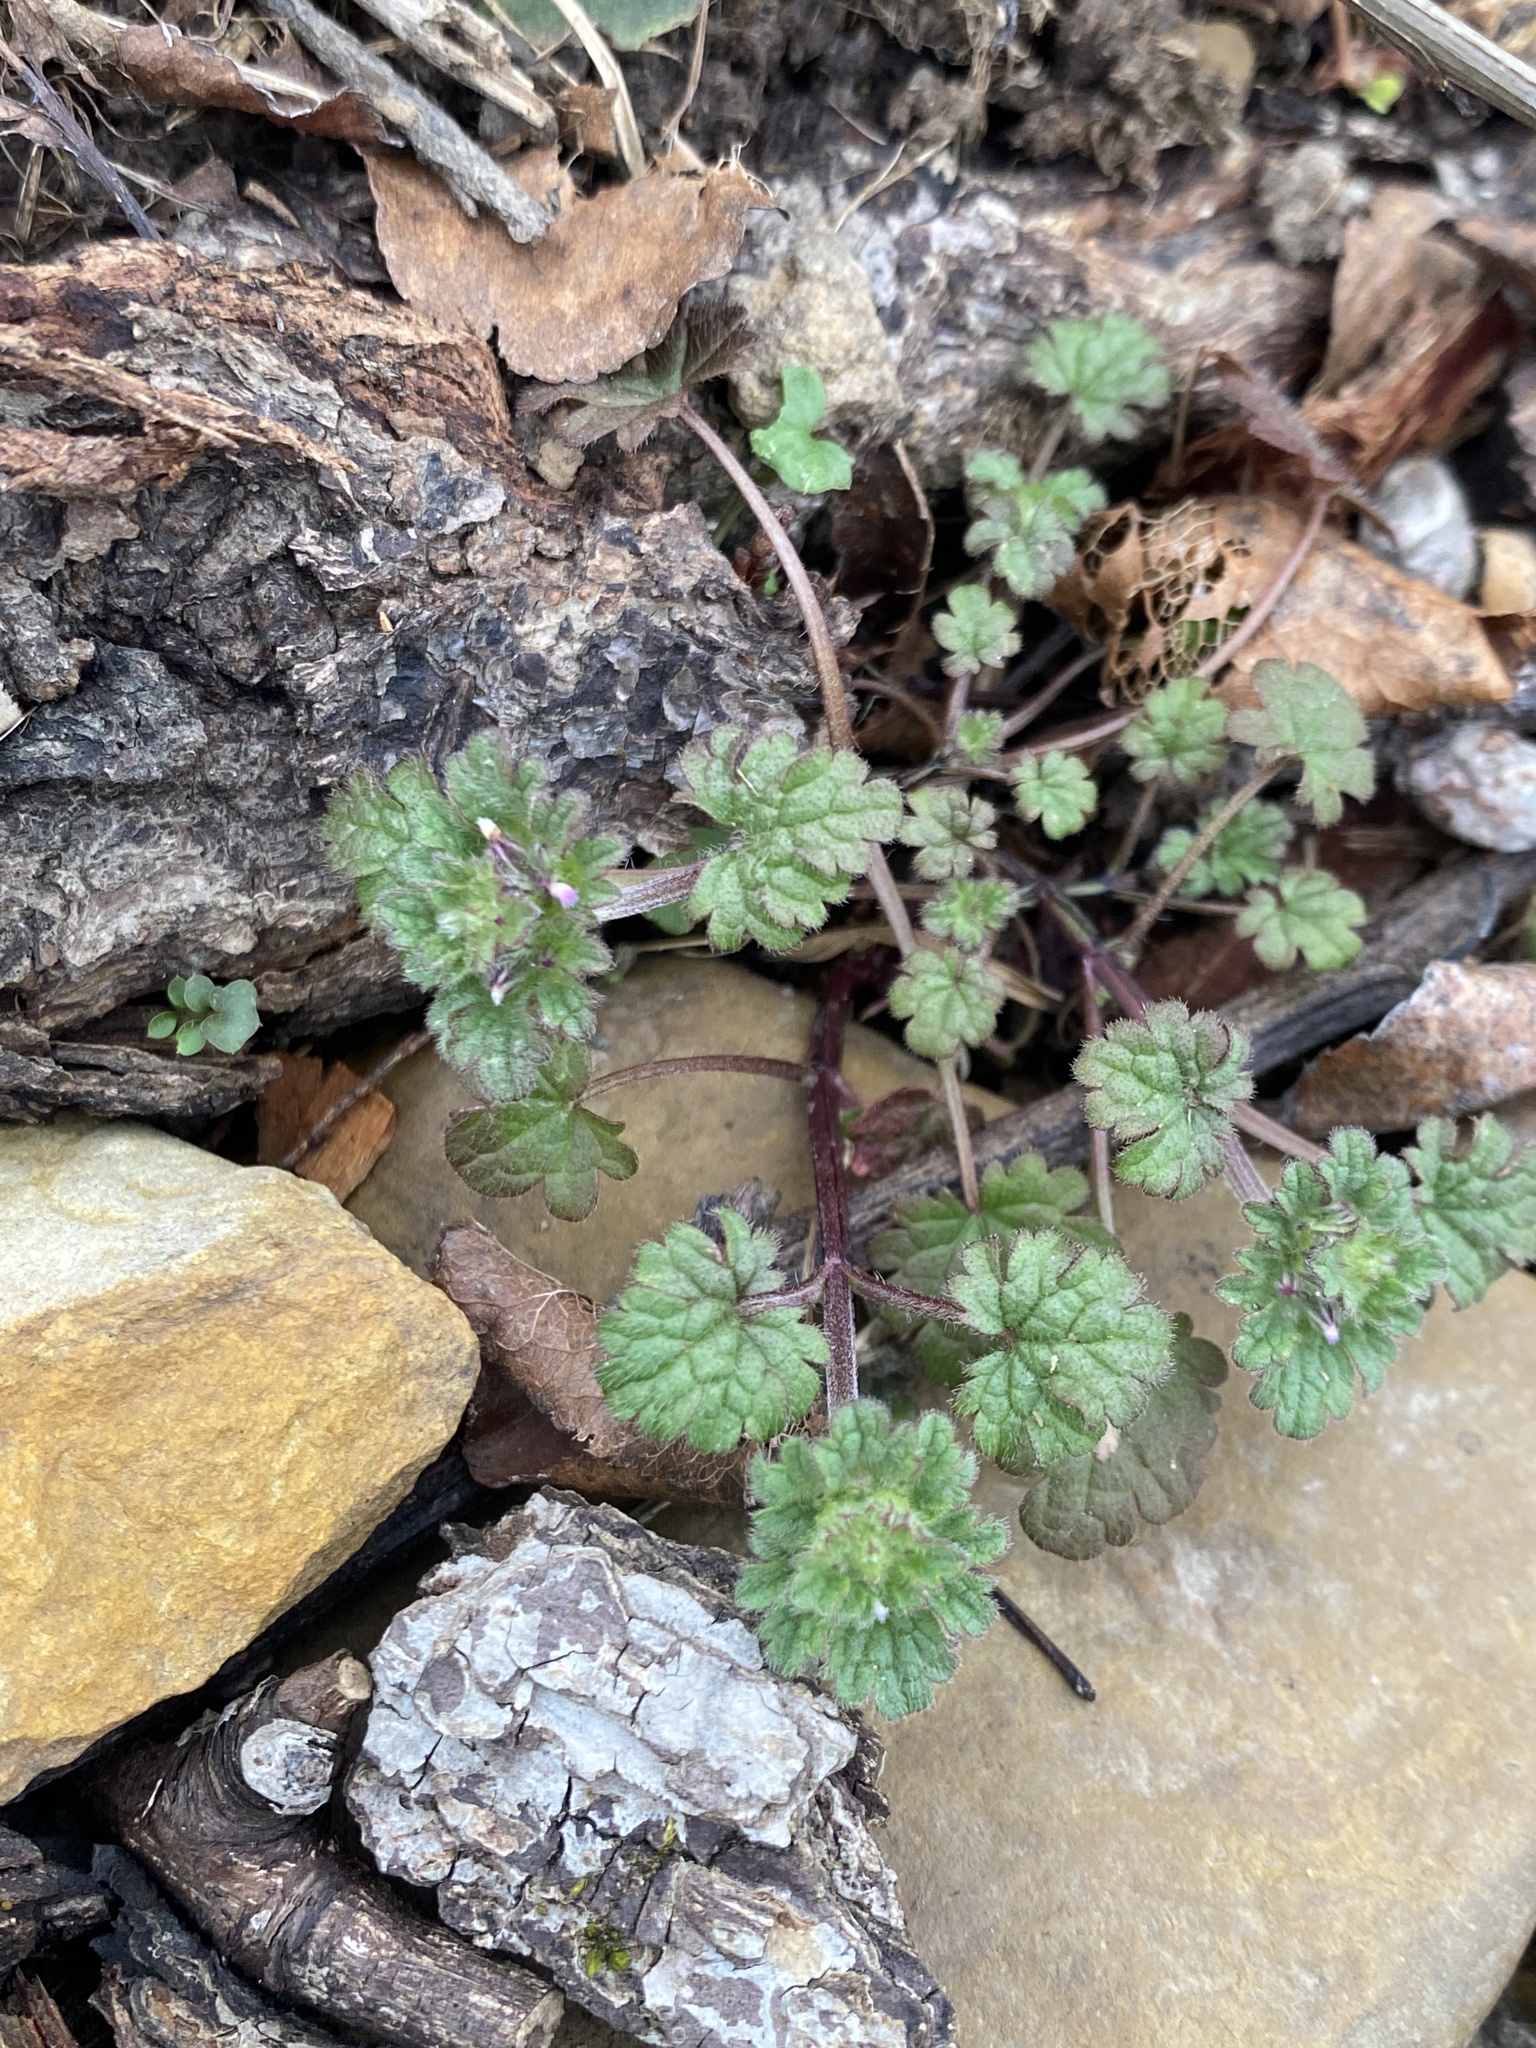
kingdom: Plantae
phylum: Tracheophyta
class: Magnoliopsida
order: Lamiales
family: Lamiaceae
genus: Lamium
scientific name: Lamium amplexicaule
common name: Henbit dead-nettle
